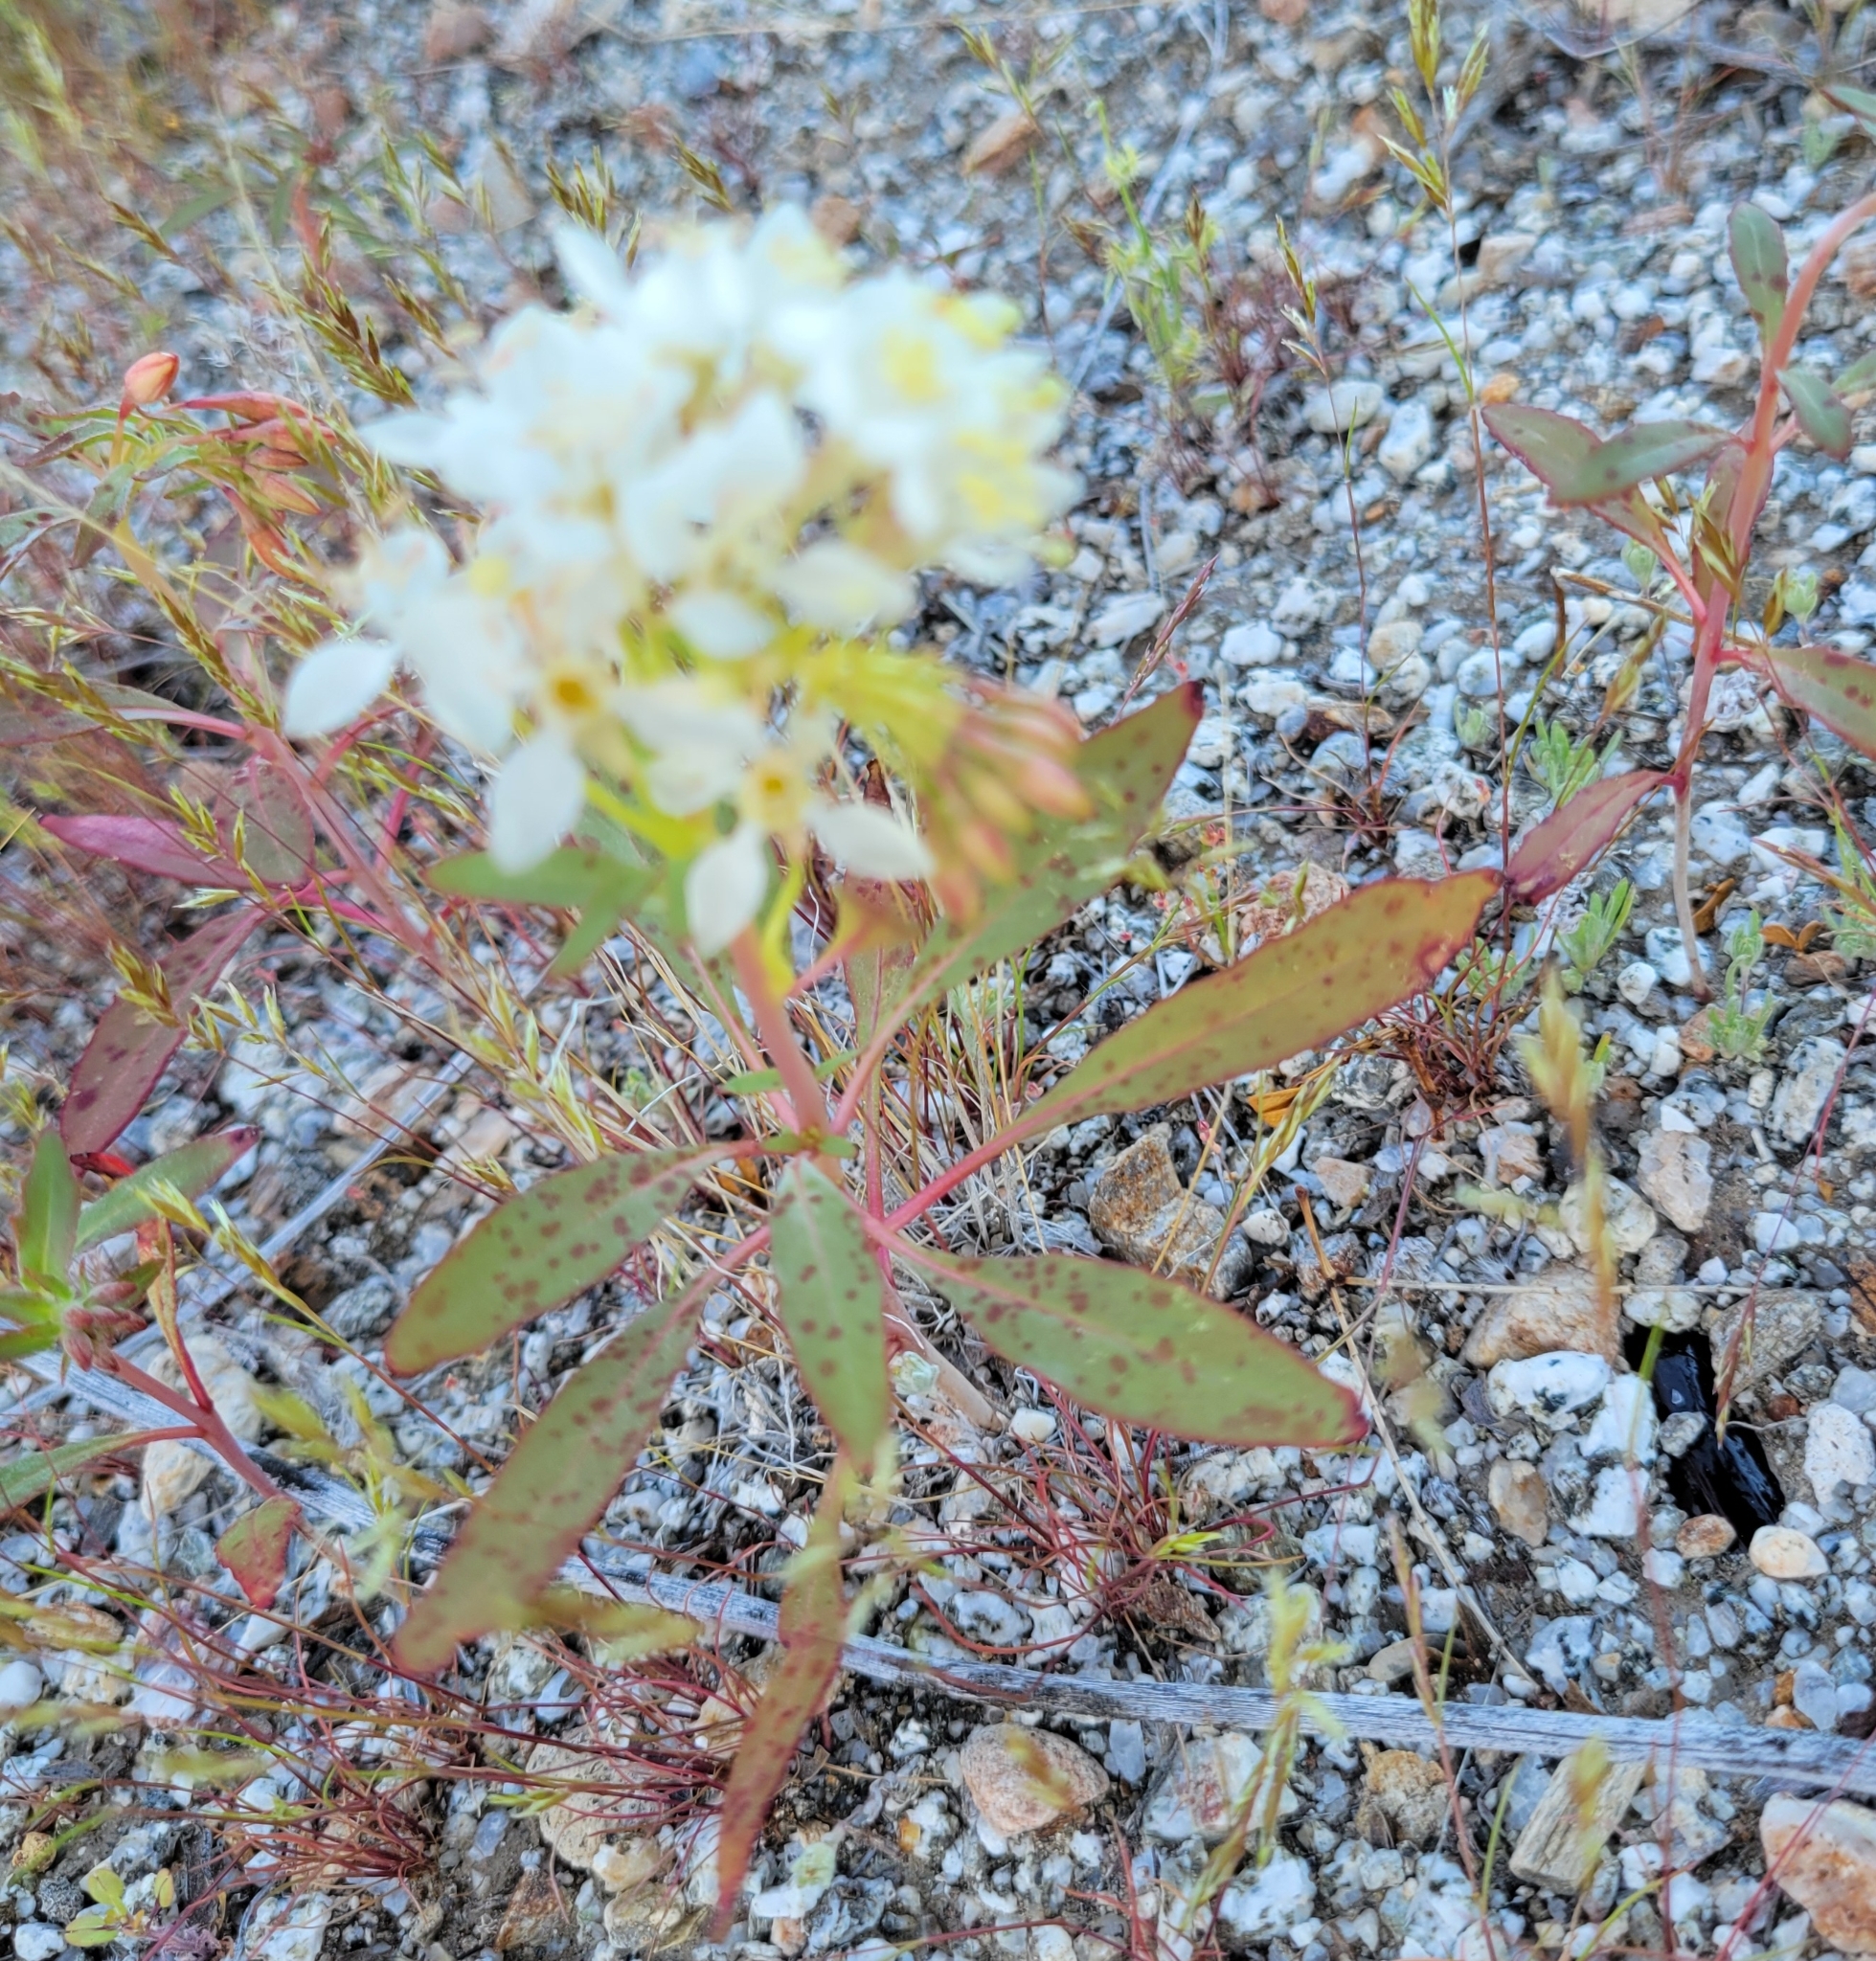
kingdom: Plantae
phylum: Tracheophyta
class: Magnoliopsida
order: Myrtales
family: Onagraceae
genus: Eremothera
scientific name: Eremothera boothii
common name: Booth's evening primrose
